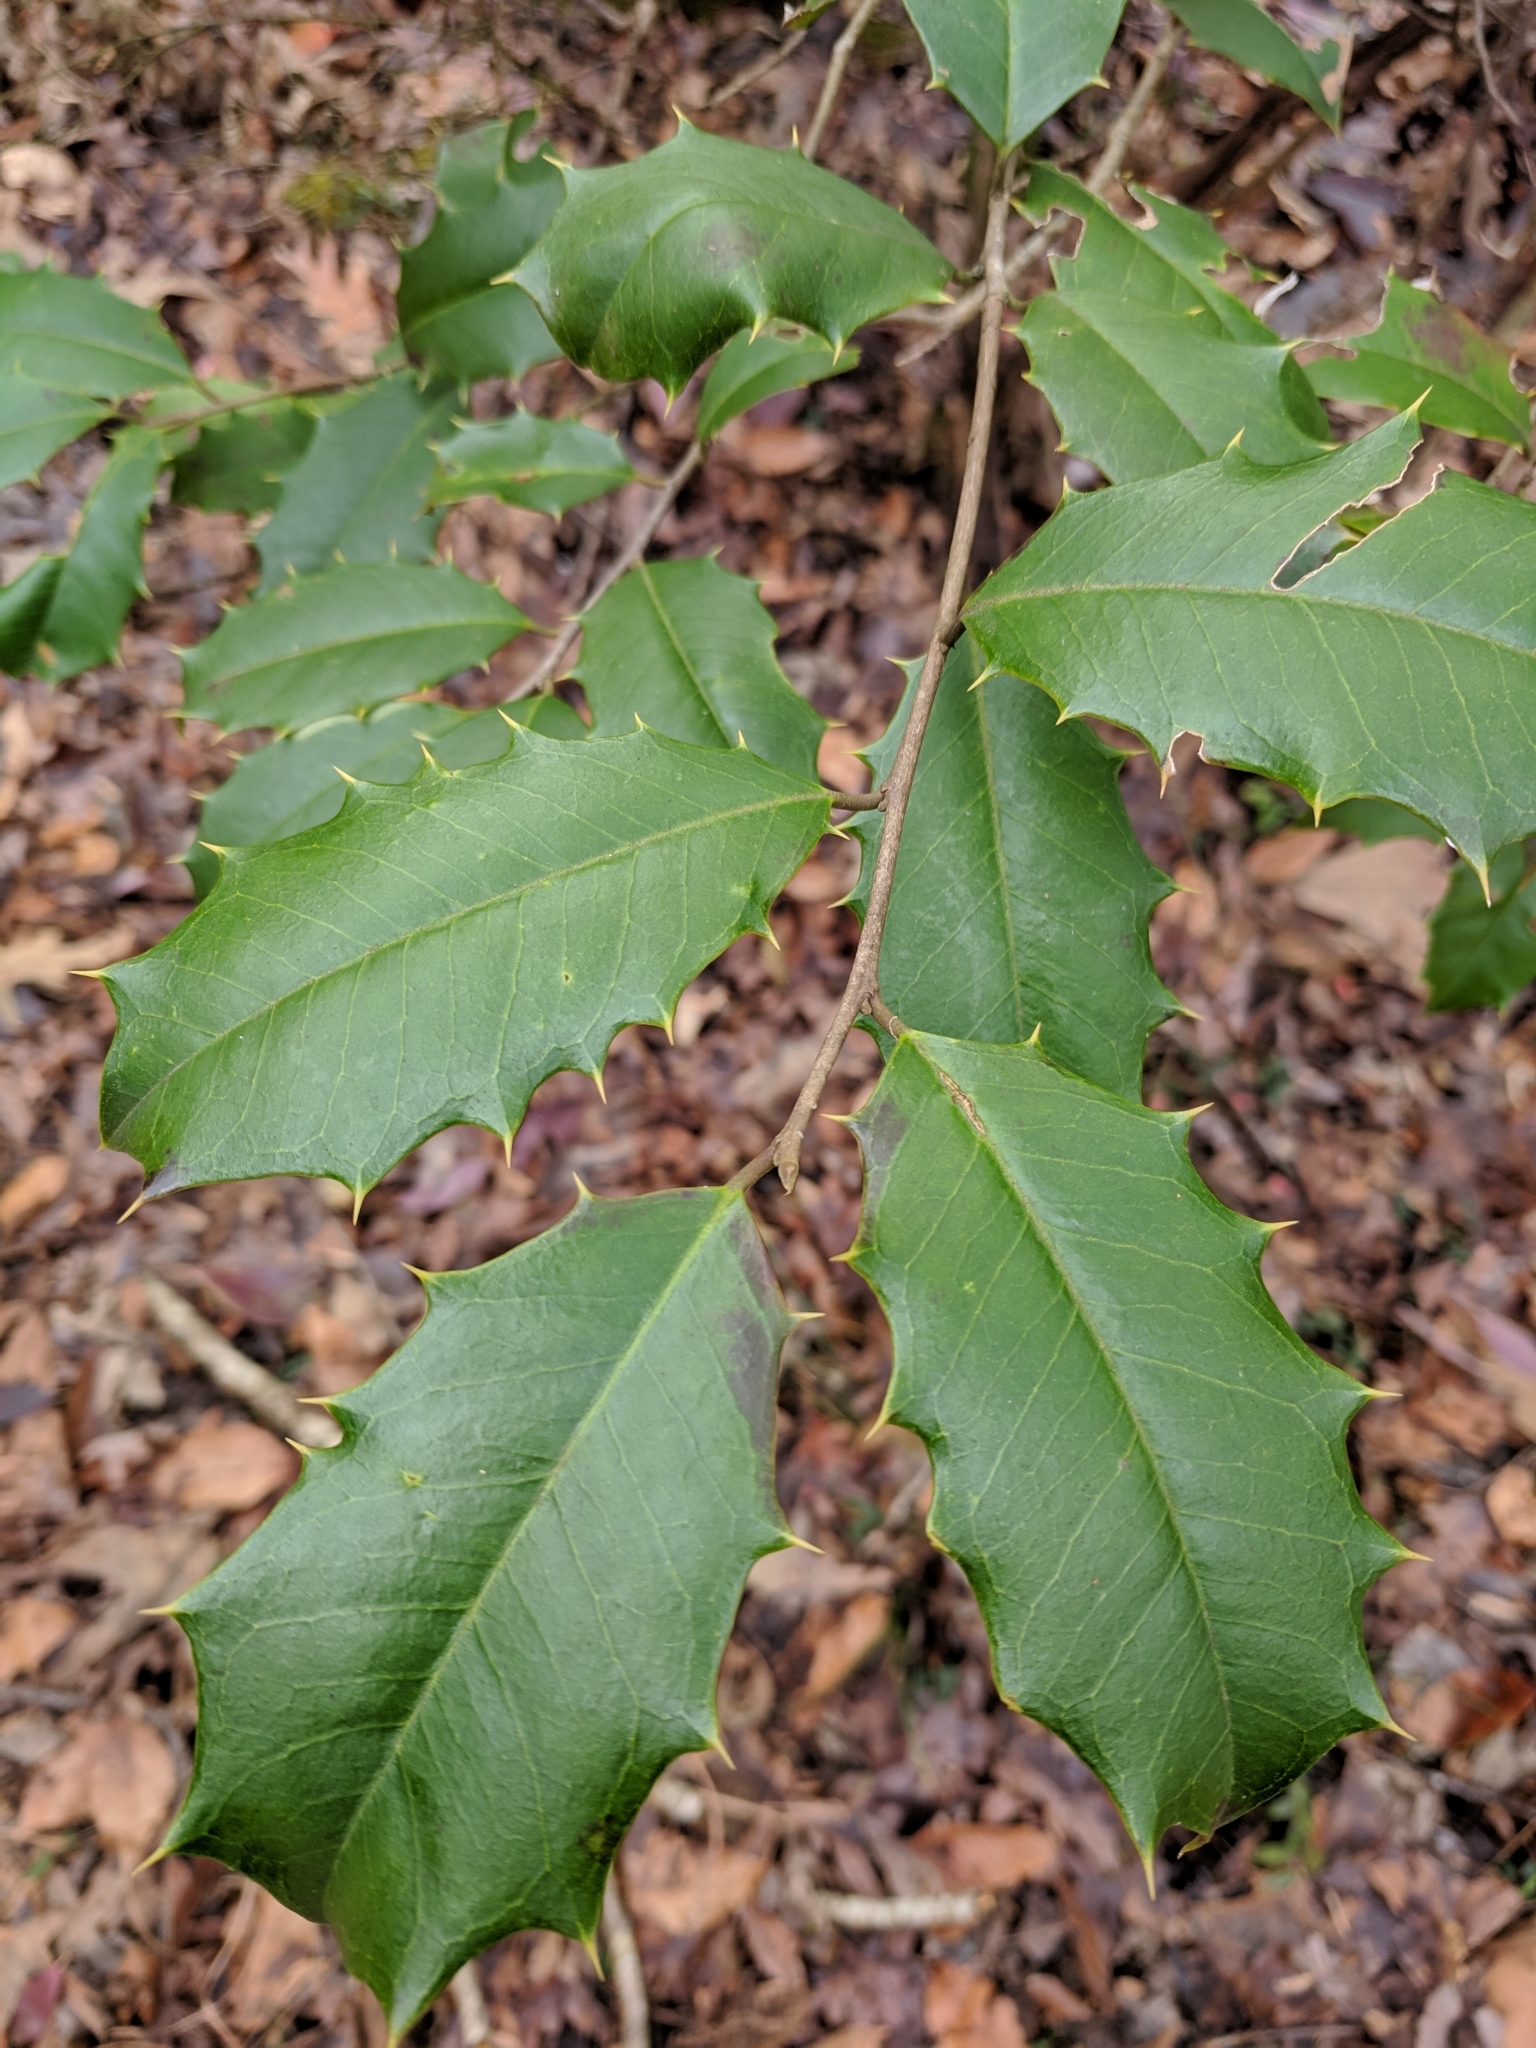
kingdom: Plantae
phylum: Tracheophyta
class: Magnoliopsida
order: Aquifoliales
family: Aquifoliaceae
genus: Ilex
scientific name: Ilex opaca
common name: American holly
